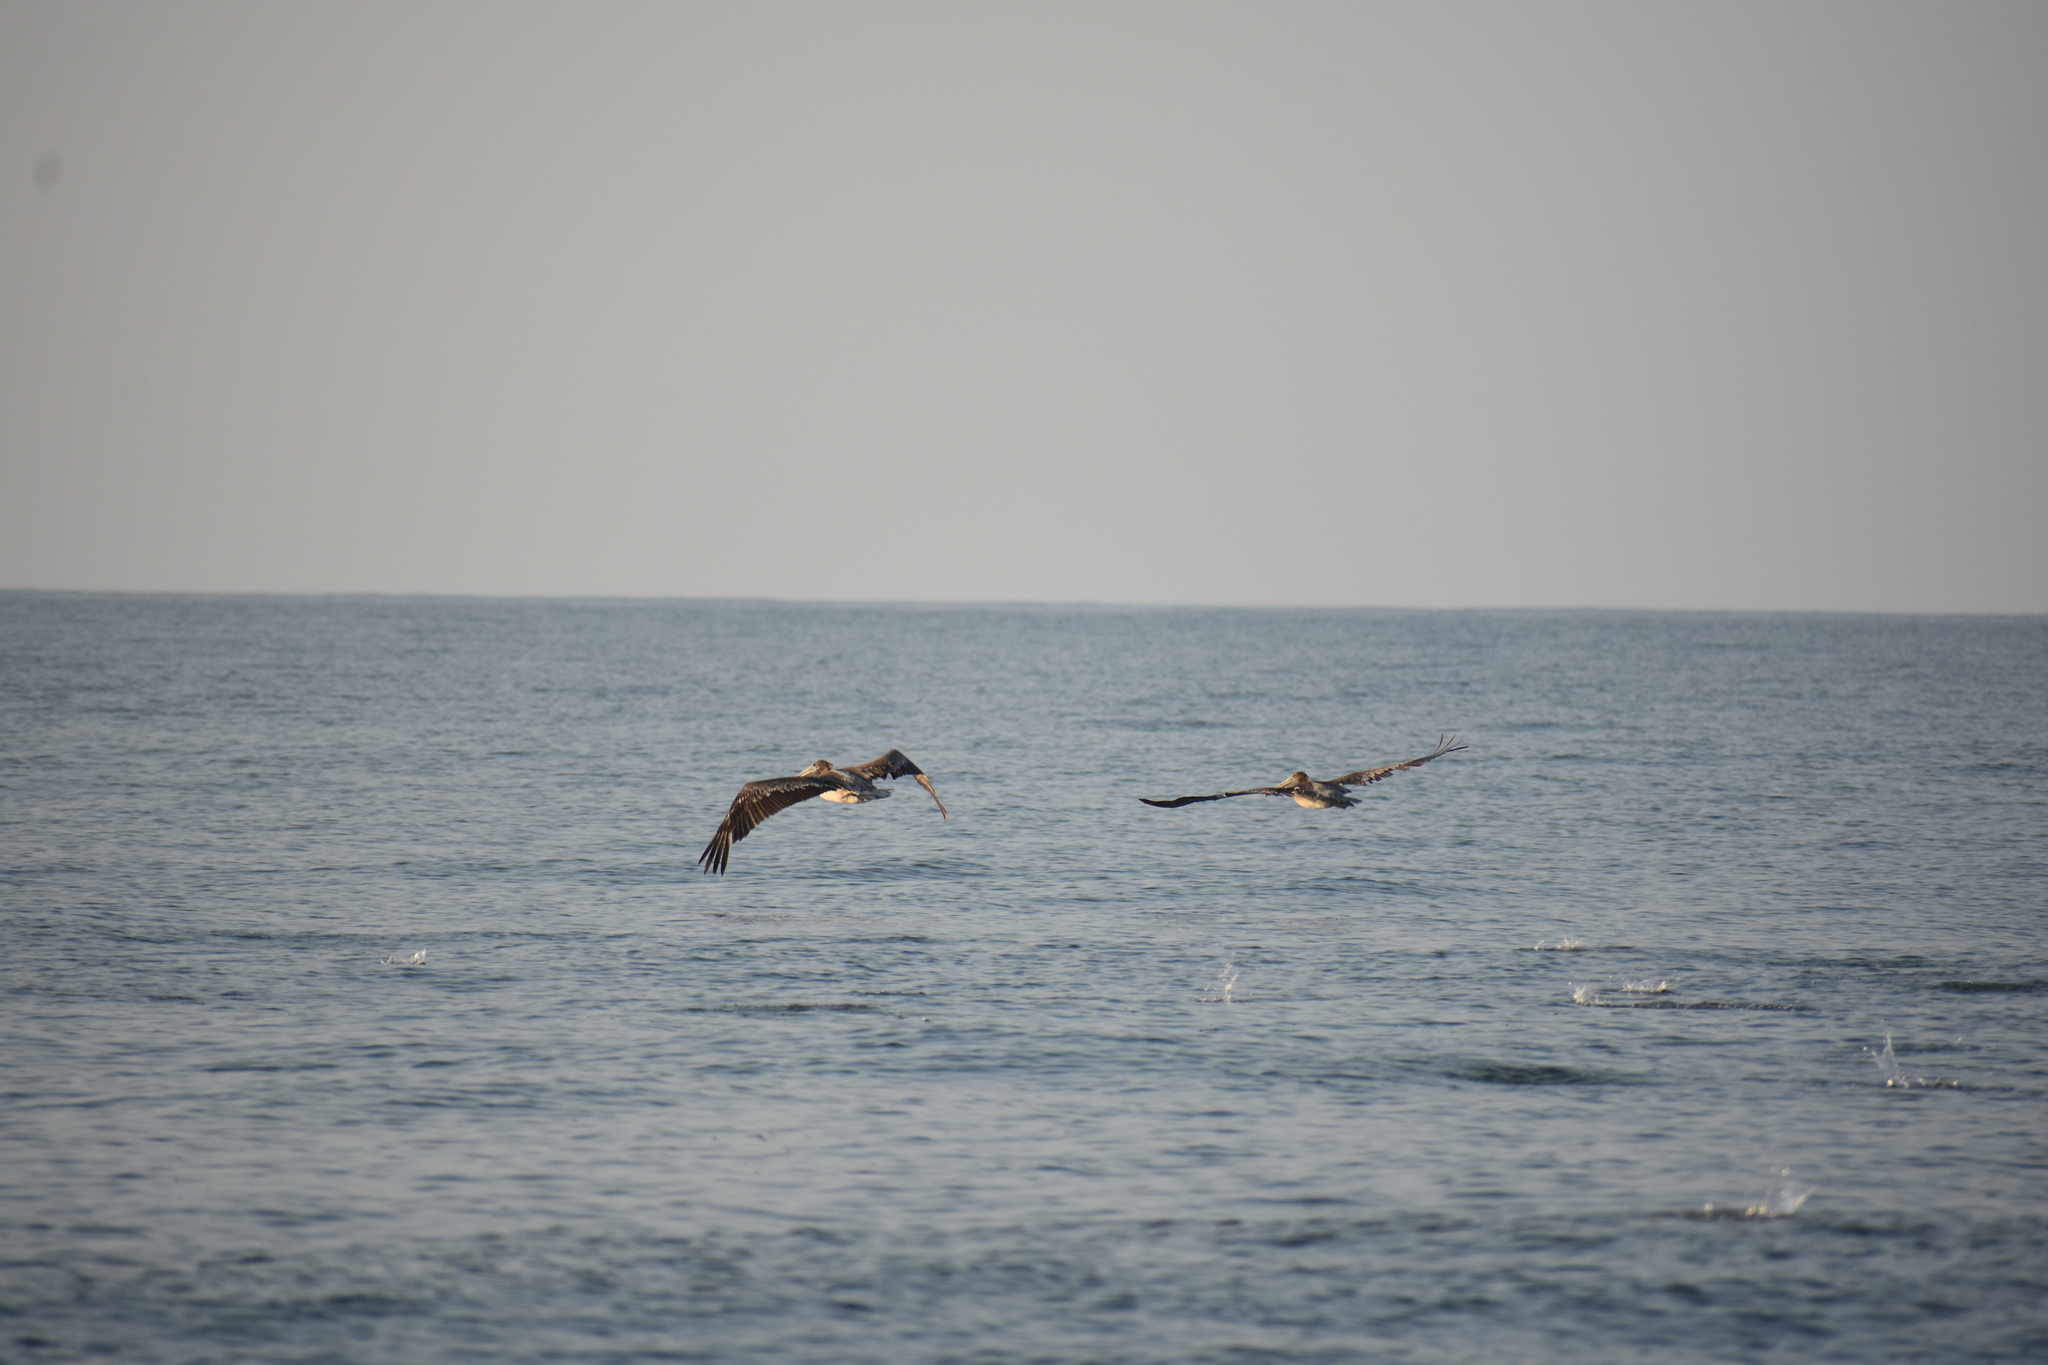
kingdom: Animalia
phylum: Chordata
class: Aves
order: Pelecaniformes
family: Pelecanidae
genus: Pelecanus
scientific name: Pelecanus occidentalis
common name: Brown pelican
